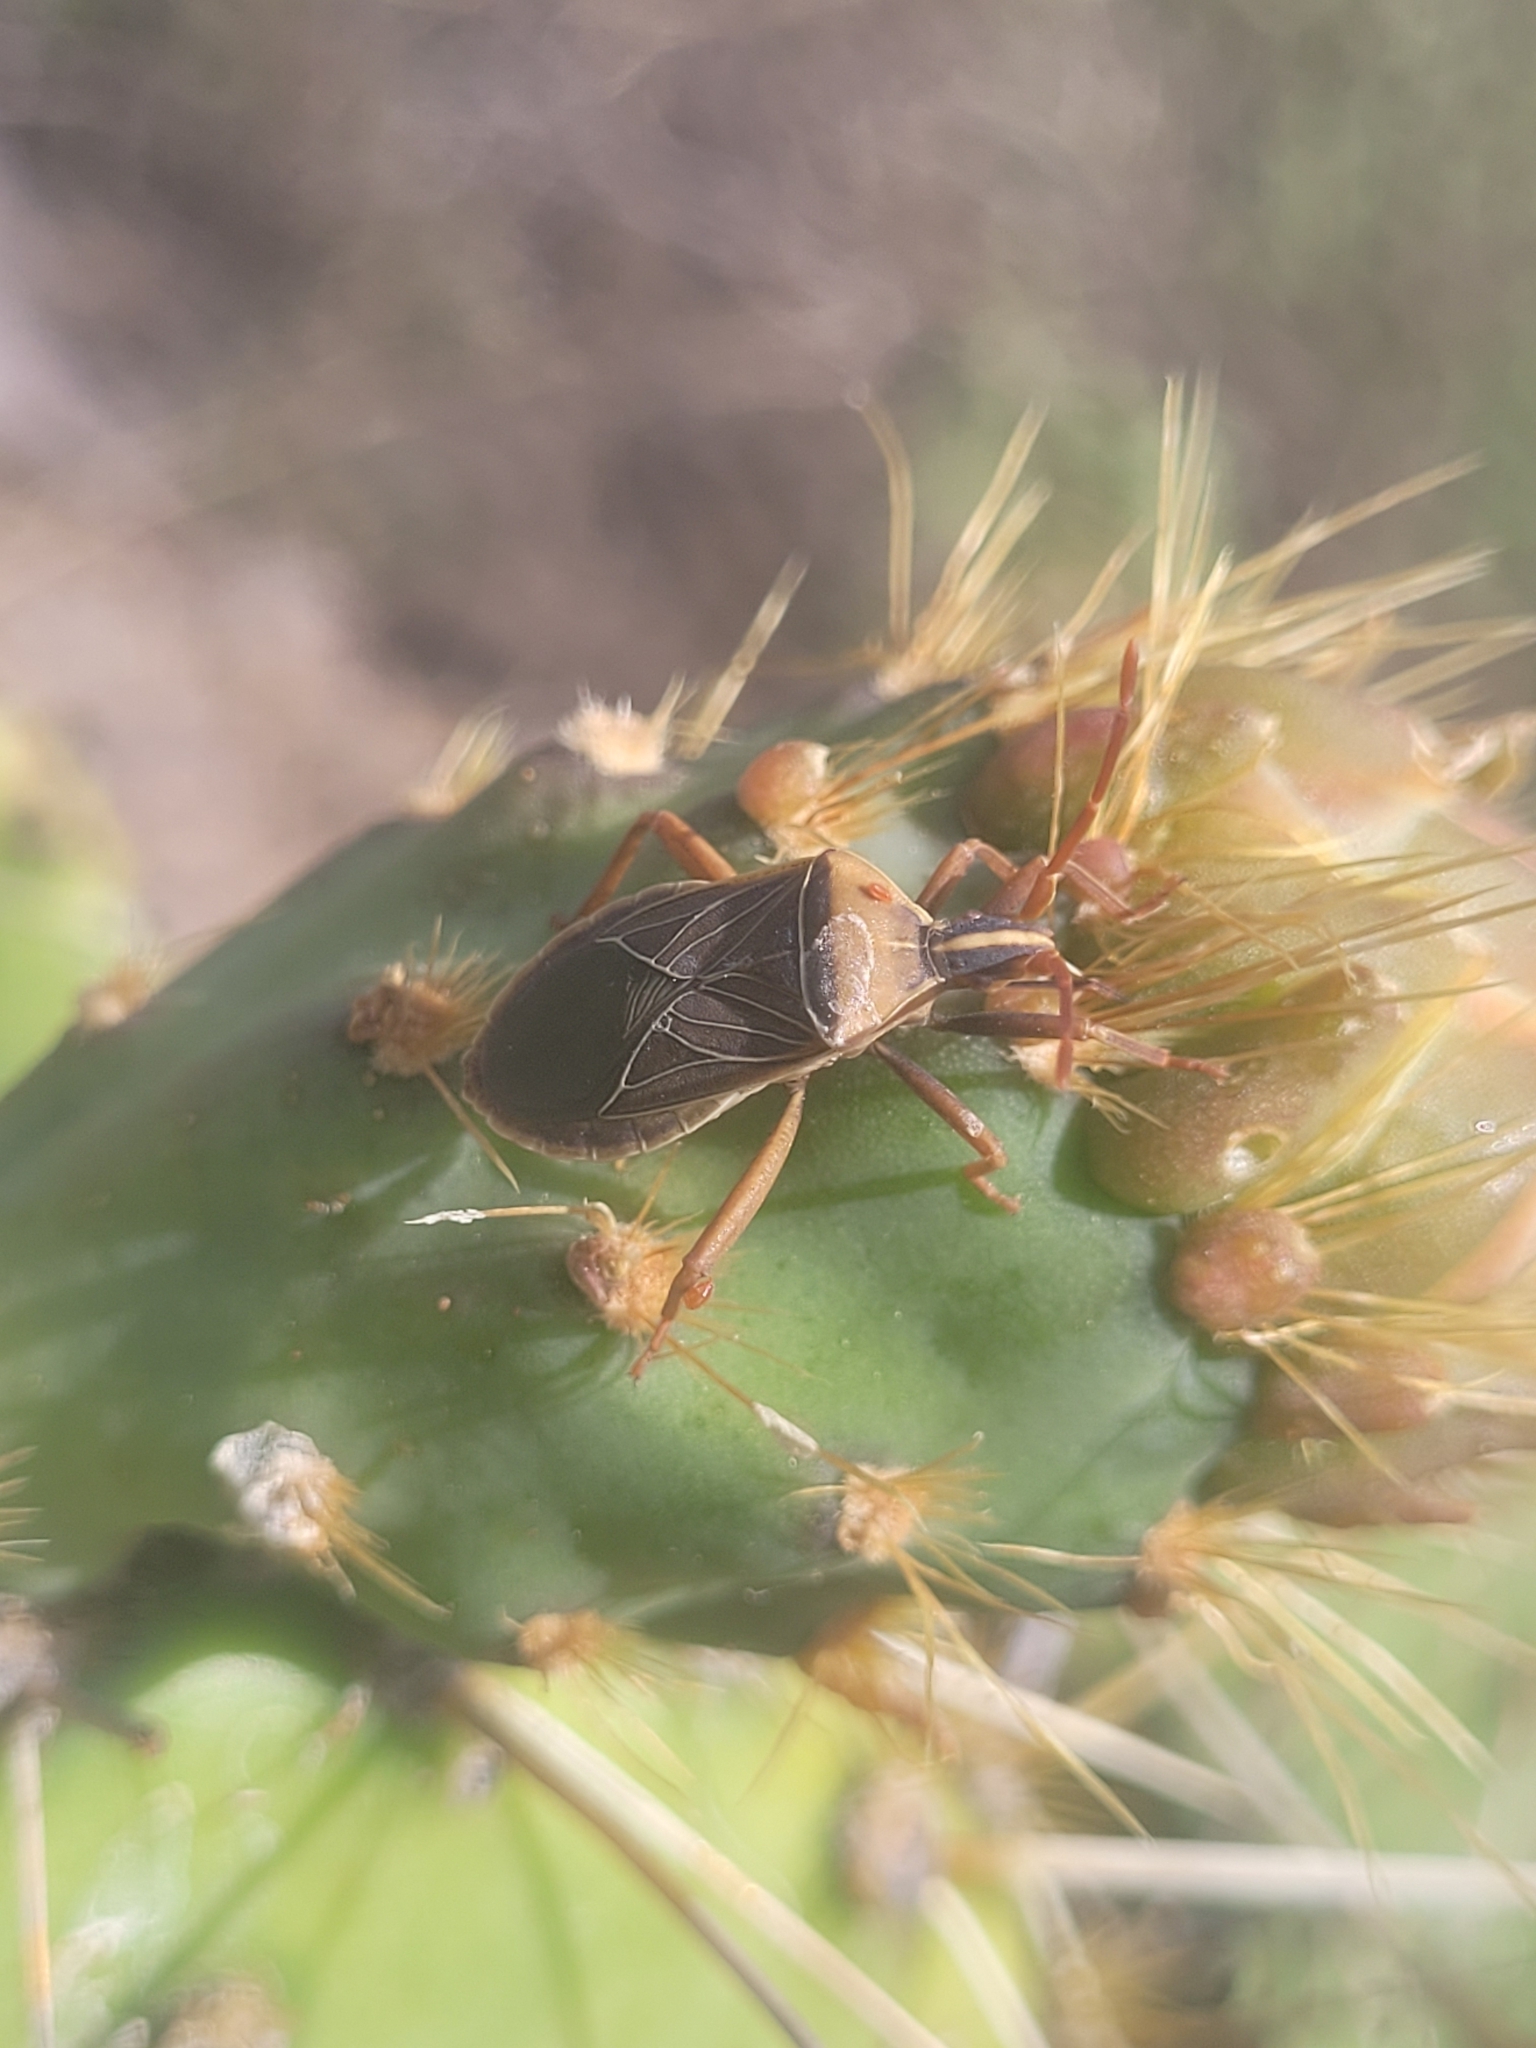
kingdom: Animalia
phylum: Arthropoda
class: Insecta
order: Hemiptera
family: Coreidae
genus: Chelinidea
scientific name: Chelinidea vittiger
